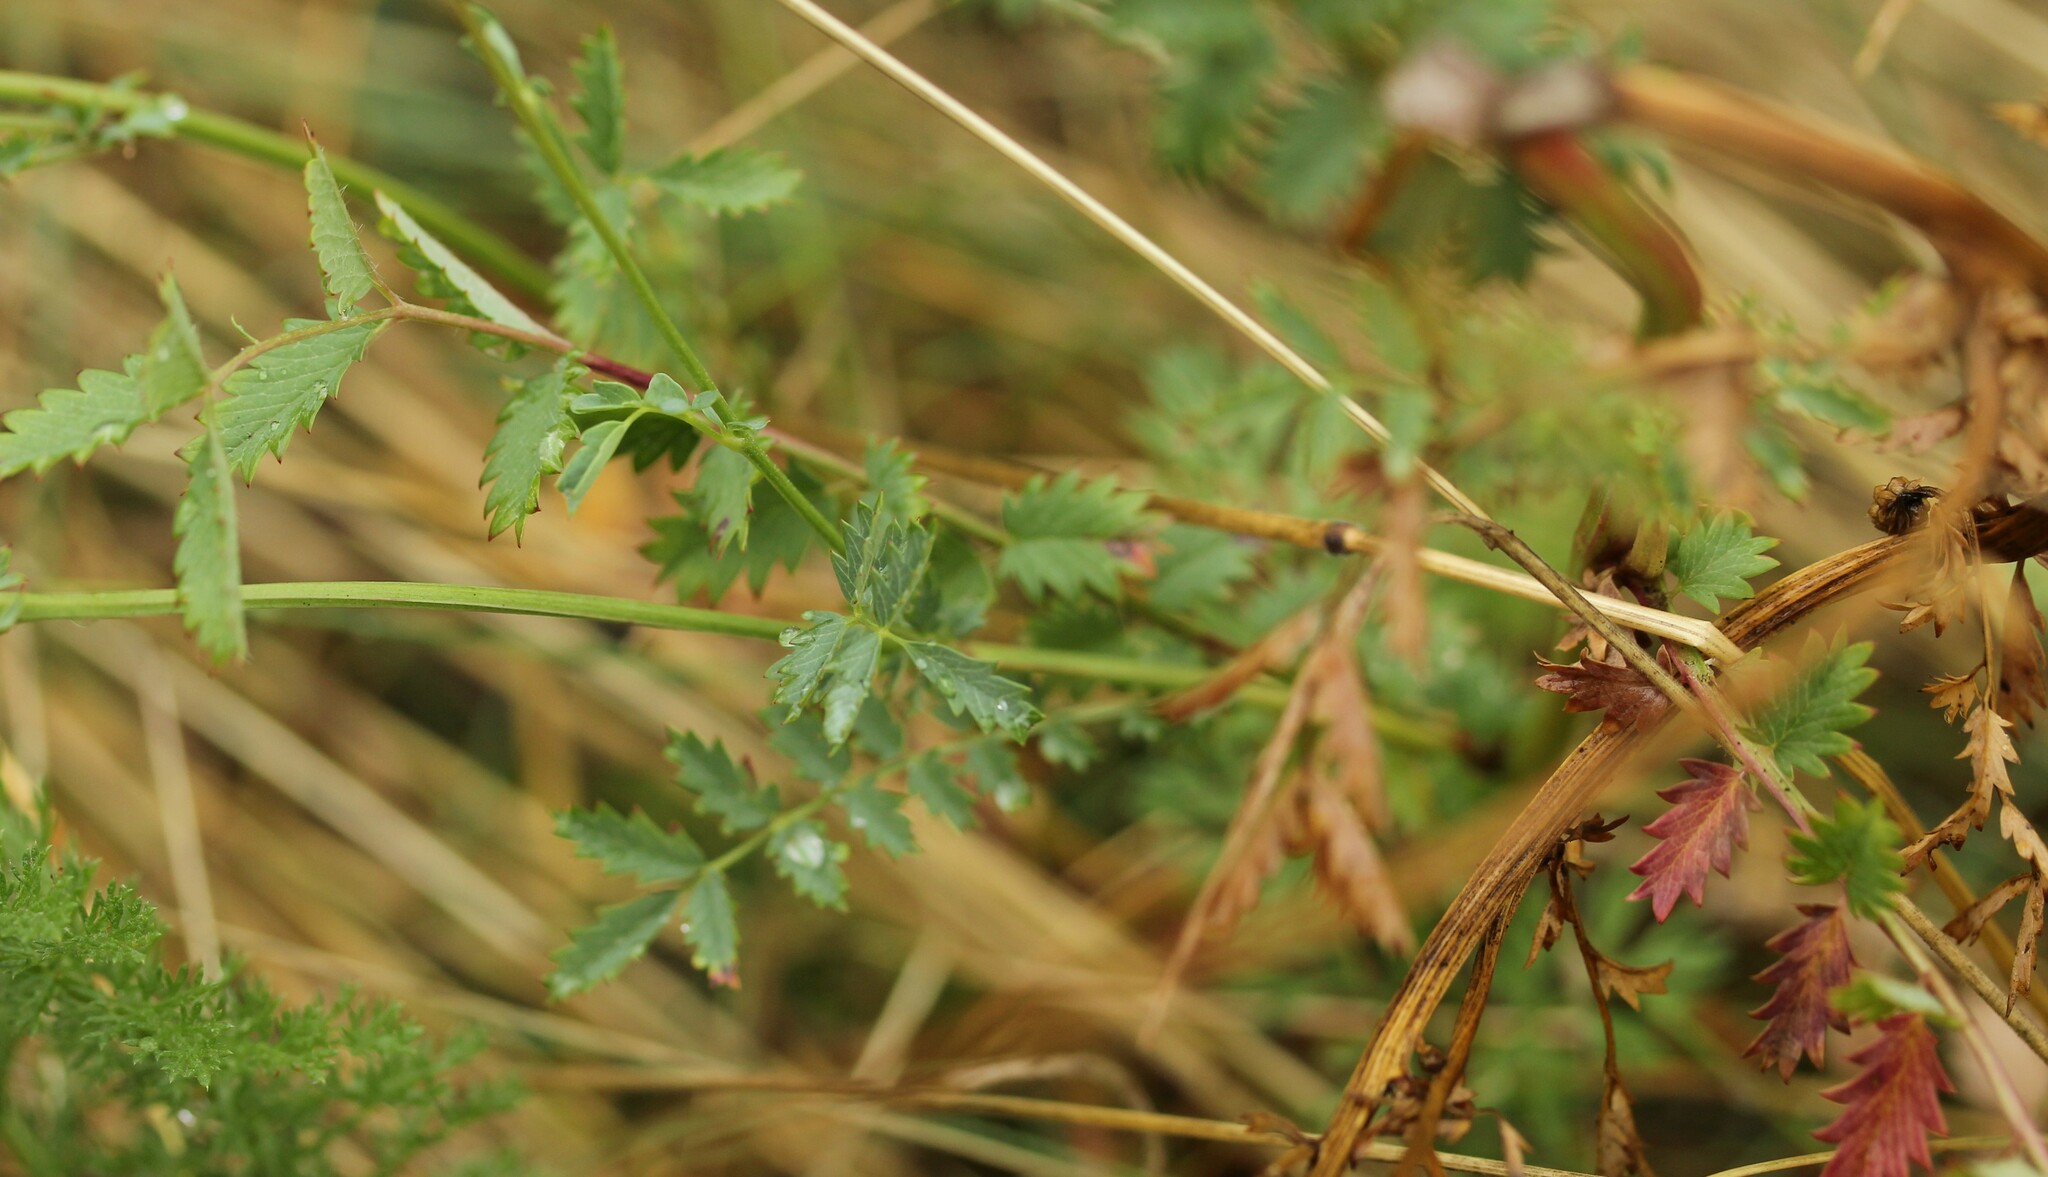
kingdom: Plantae
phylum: Tracheophyta
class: Magnoliopsida
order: Rosales
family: Rosaceae
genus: Poterium
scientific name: Poterium sanguisorba
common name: Salad burnet
